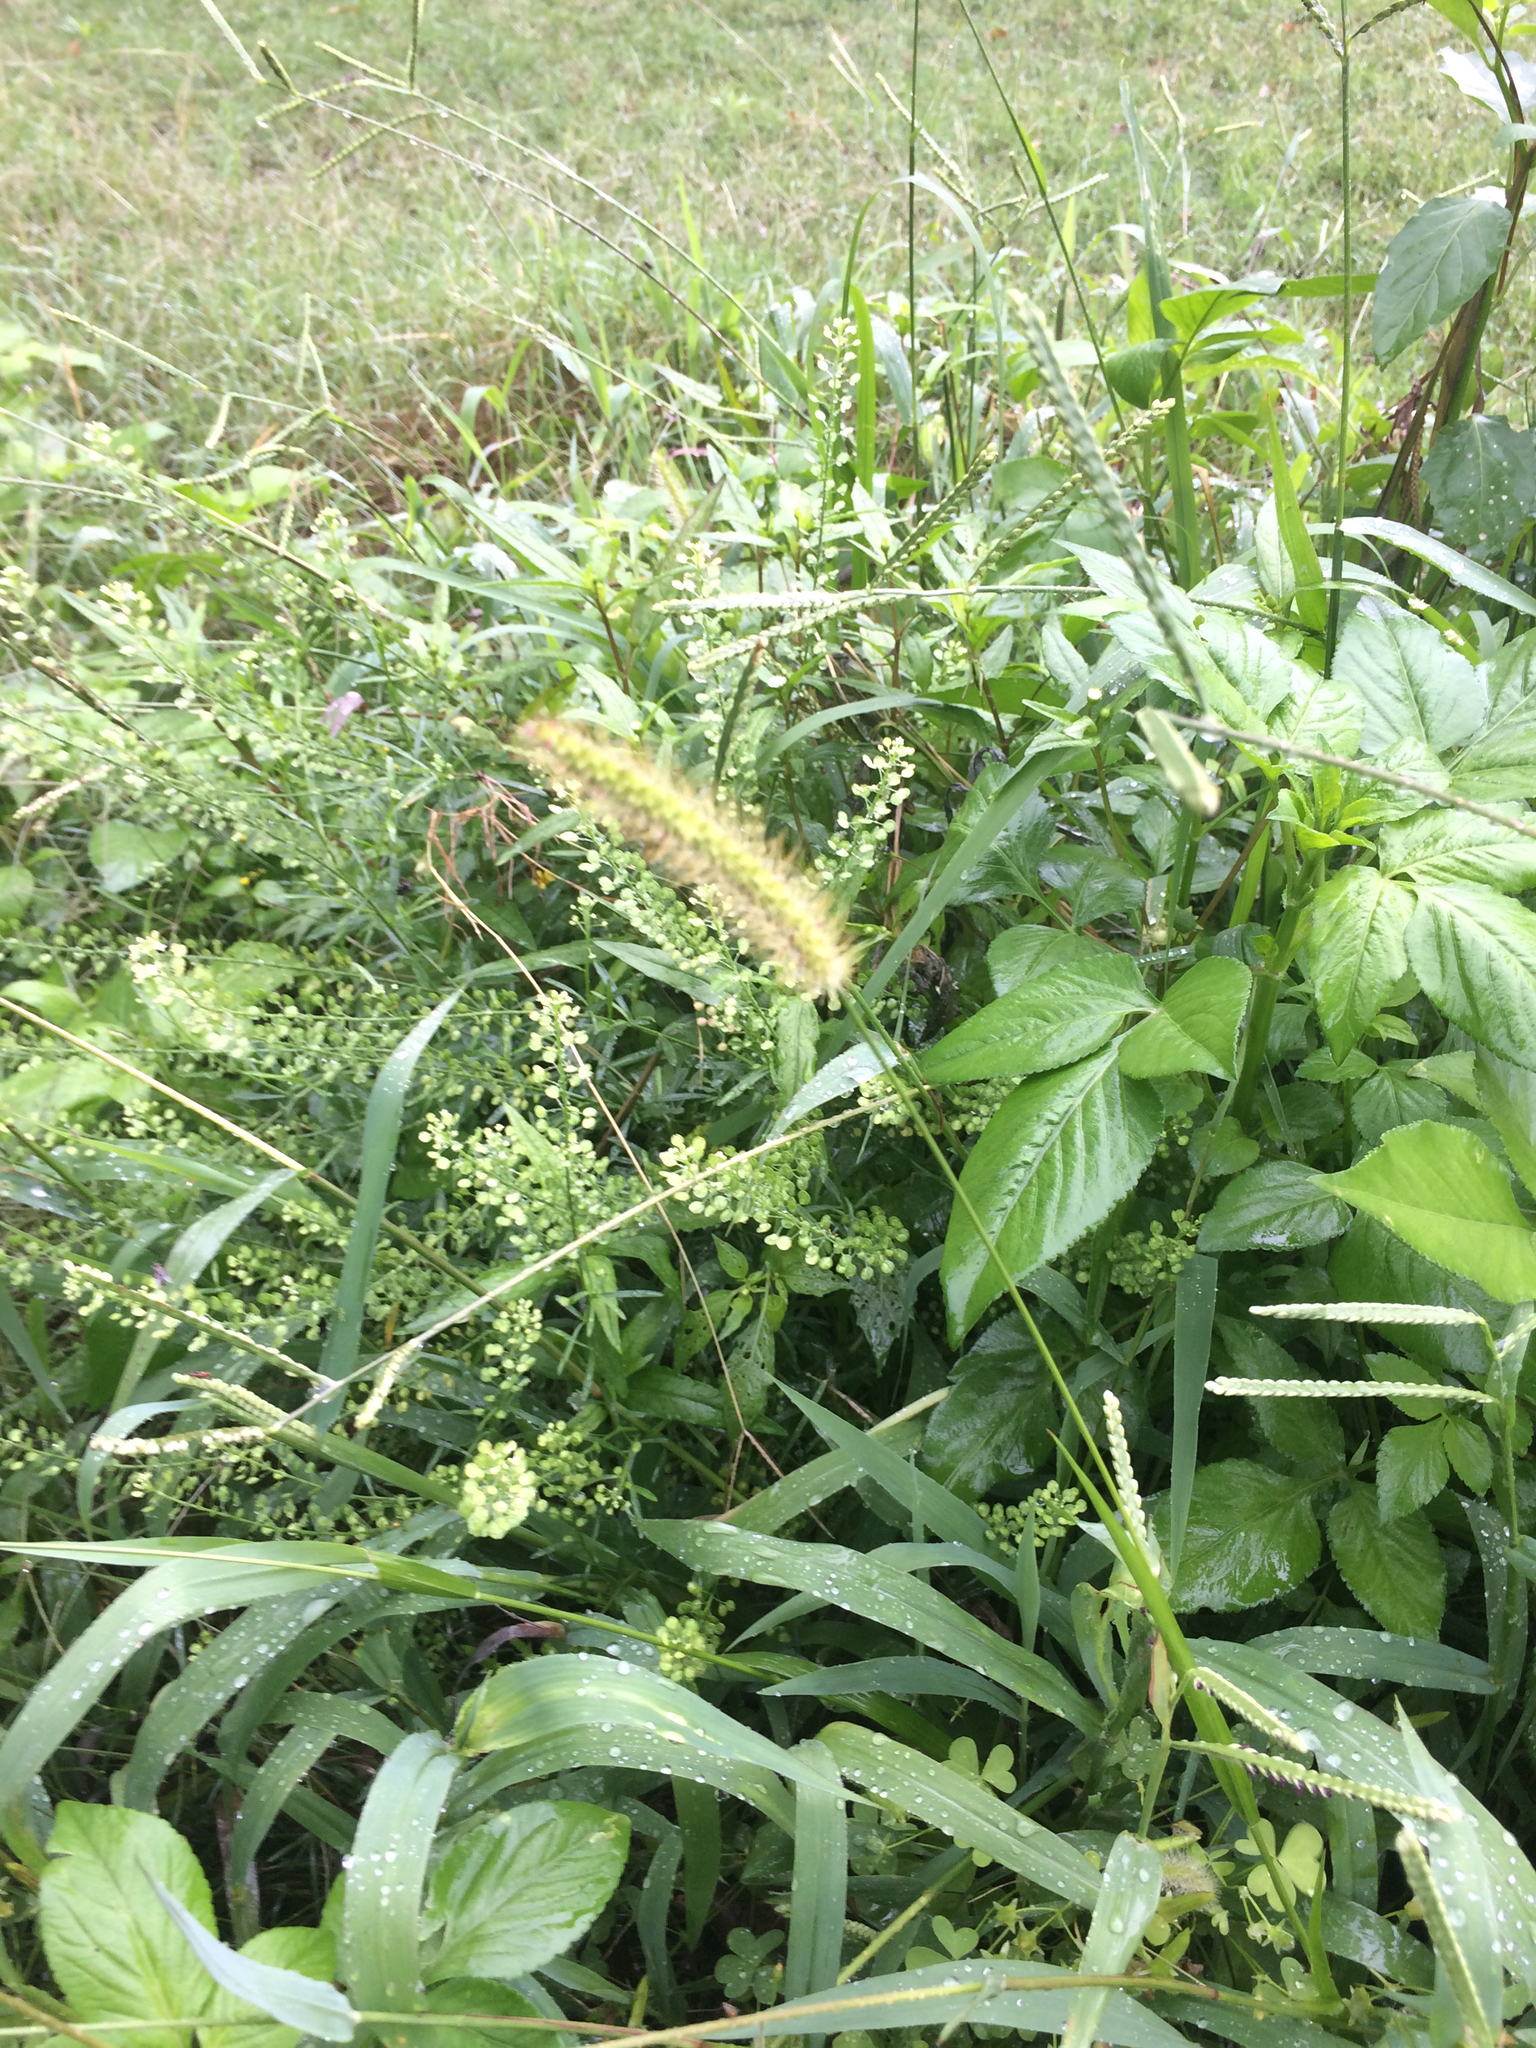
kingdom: Plantae
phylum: Tracheophyta
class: Liliopsida
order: Poales
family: Poaceae
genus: Setaria
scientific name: Setaria parviflora
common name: Knotroot bristle-grass
